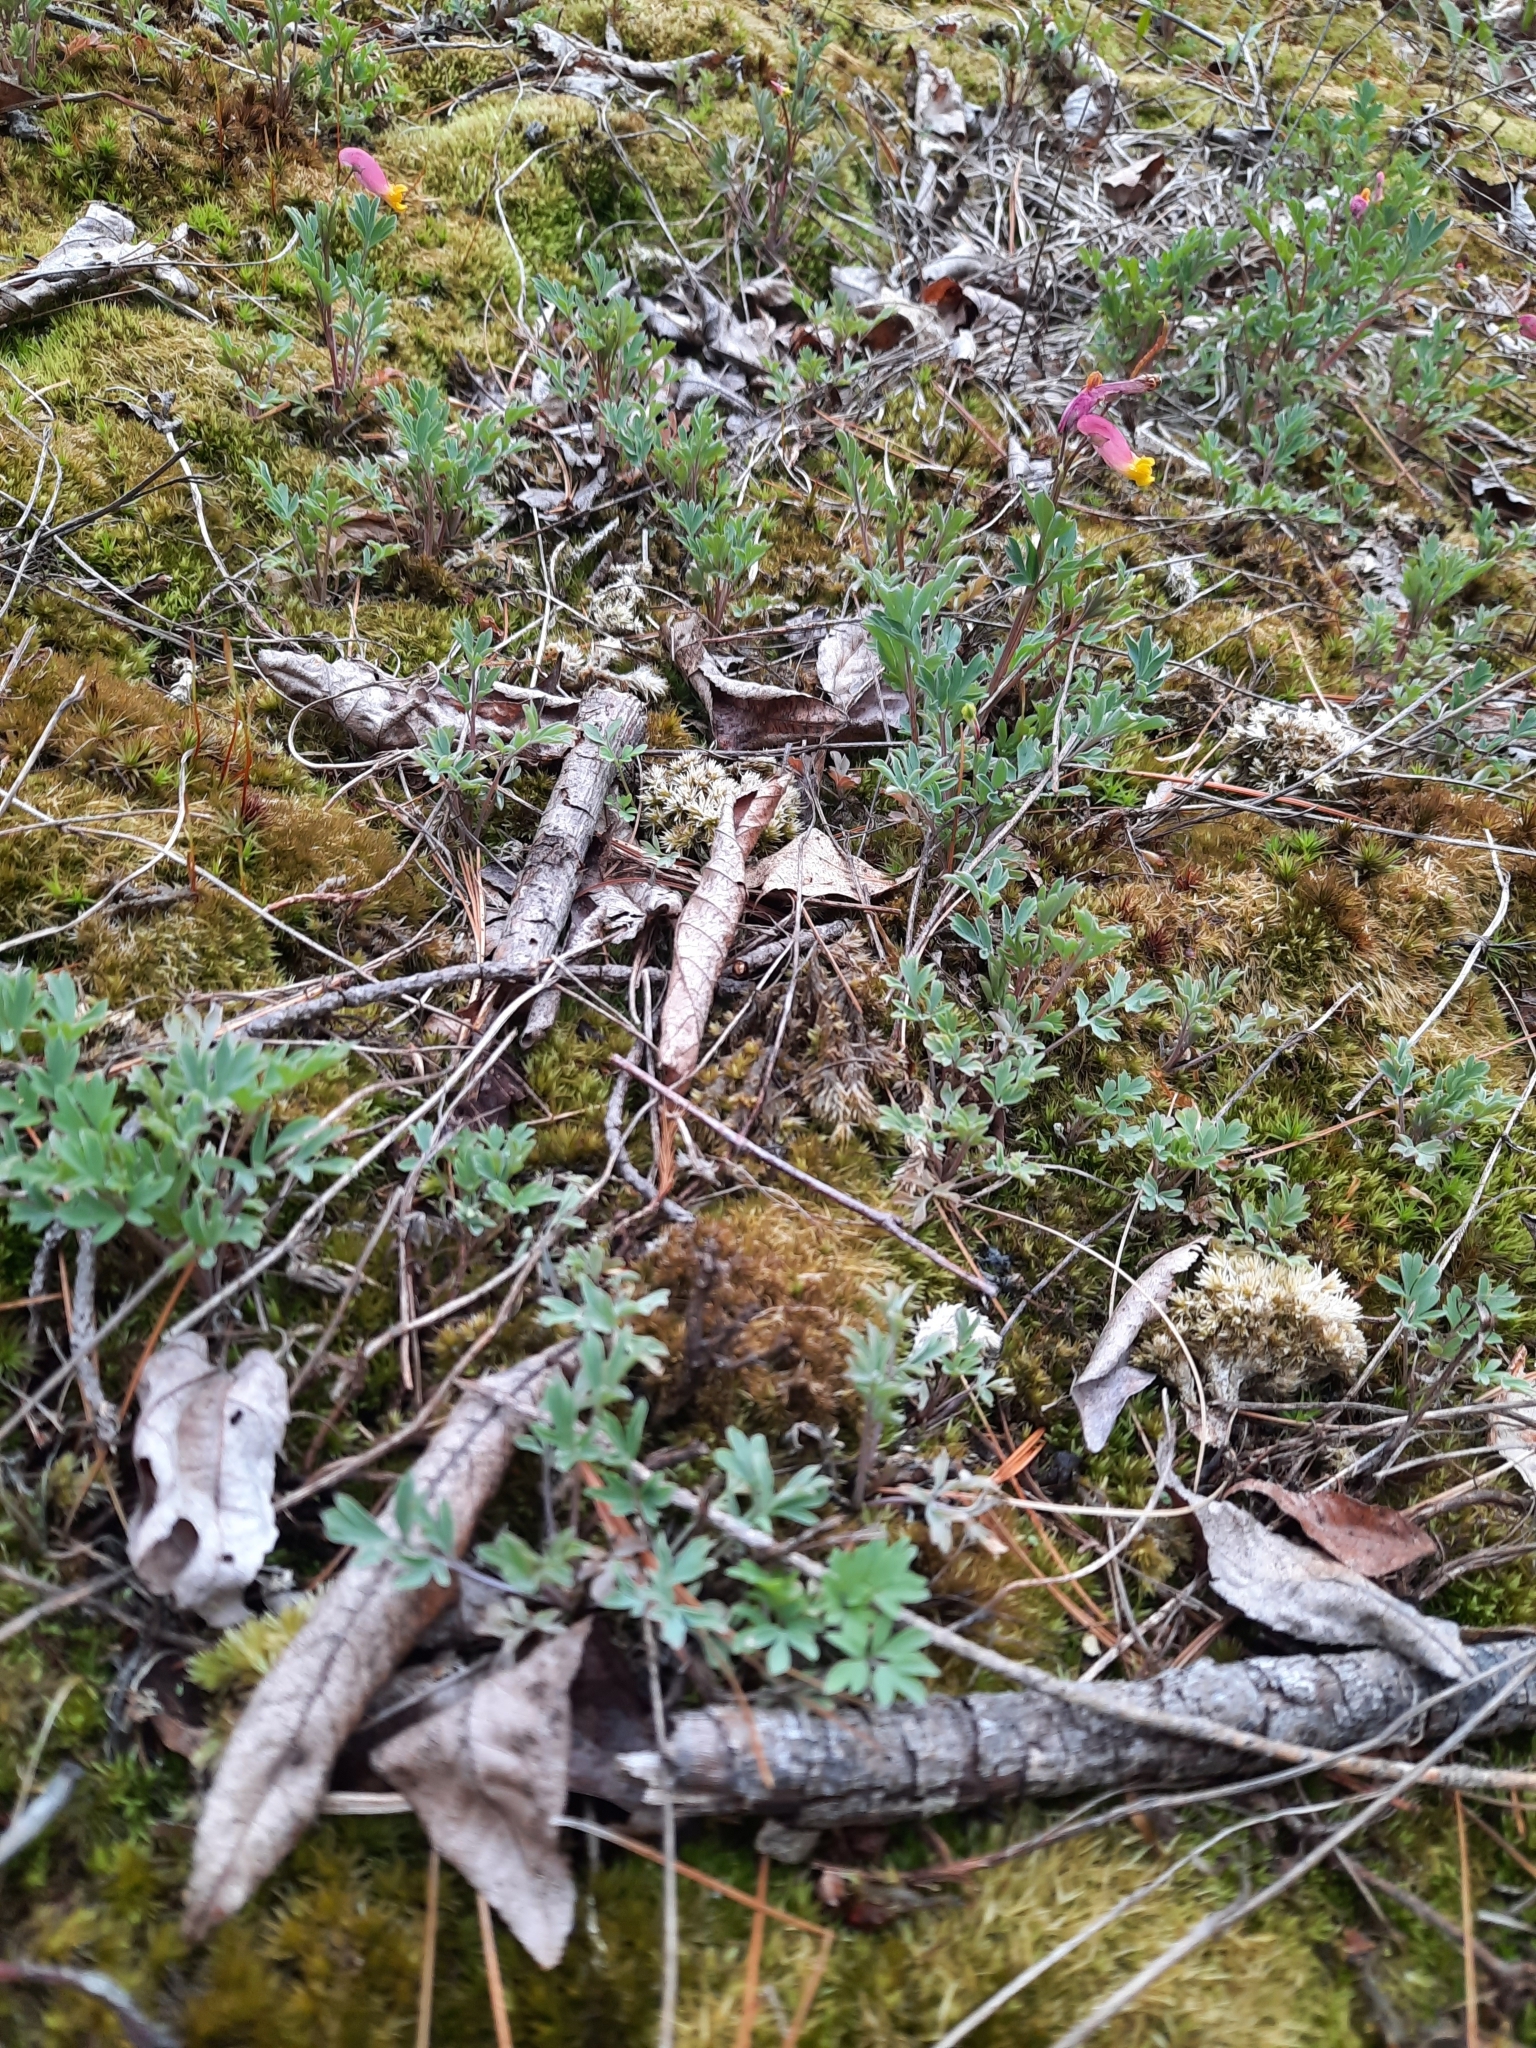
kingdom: Plantae
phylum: Tracheophyta
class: Magnoliopsida
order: Ranunculales
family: Papaveraceae
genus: Capnoides
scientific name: Capnoides sempervirens
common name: Rock harlequin
